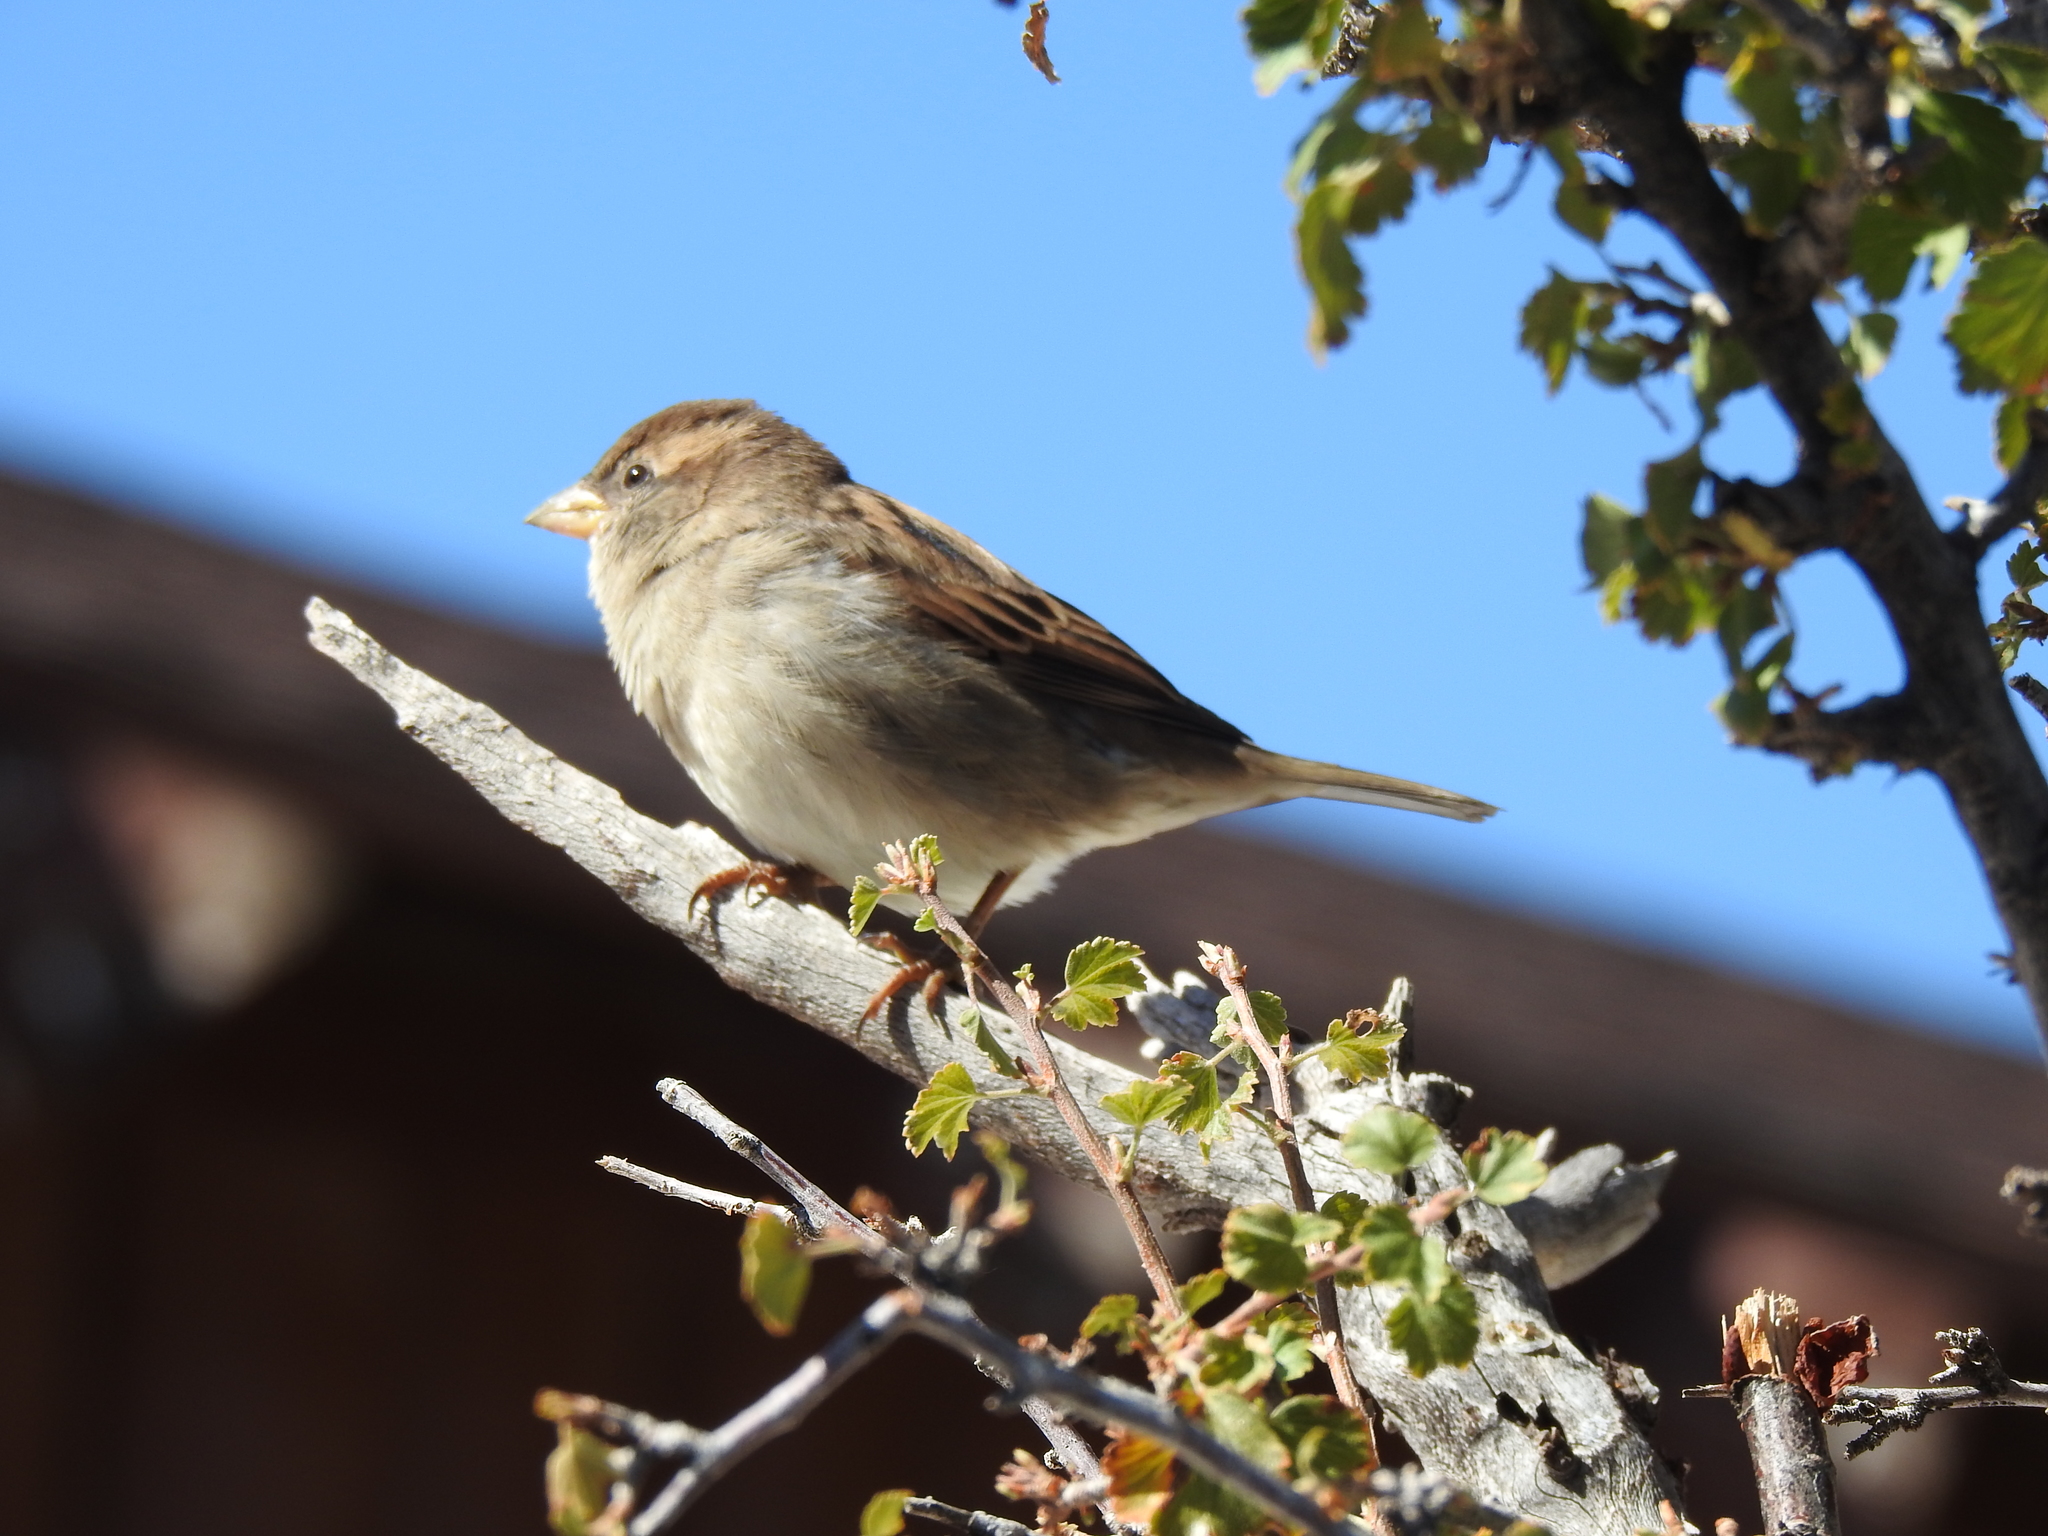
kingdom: Animalia
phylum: Chordata
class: Aves
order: Passeriformes
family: Passeridae
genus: Passer
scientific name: Passer domesticus
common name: House sparrow
